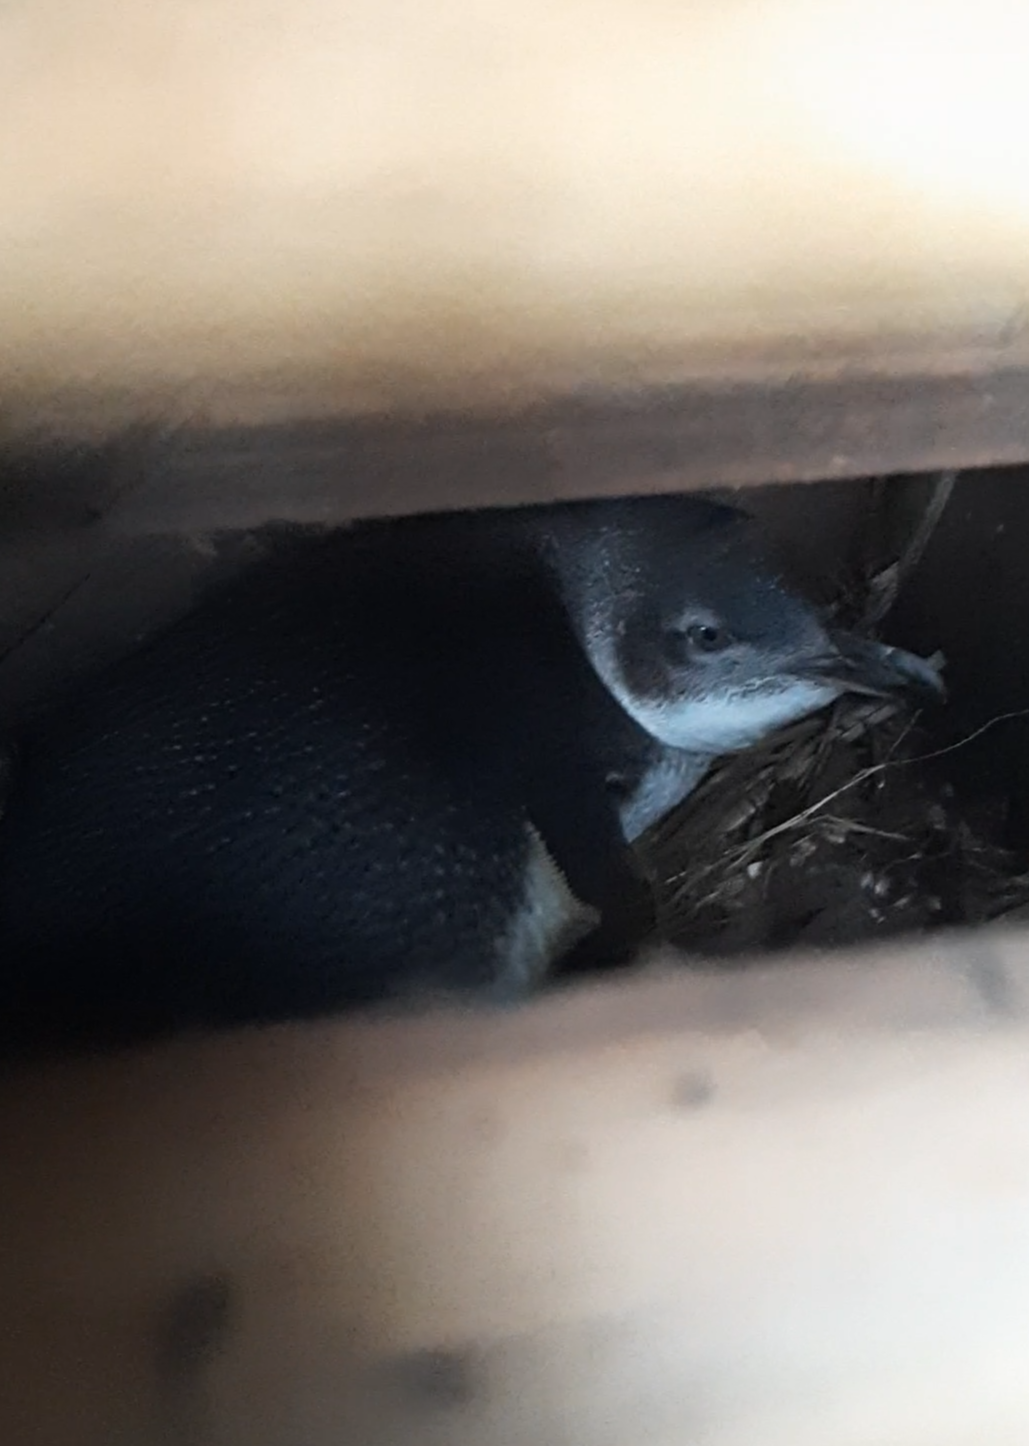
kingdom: Animalia
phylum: Chordata
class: Aves
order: Sphenisciformes
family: Spheniscidae
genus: Eudyptula
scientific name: Eudyptula minor
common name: Little penguin
